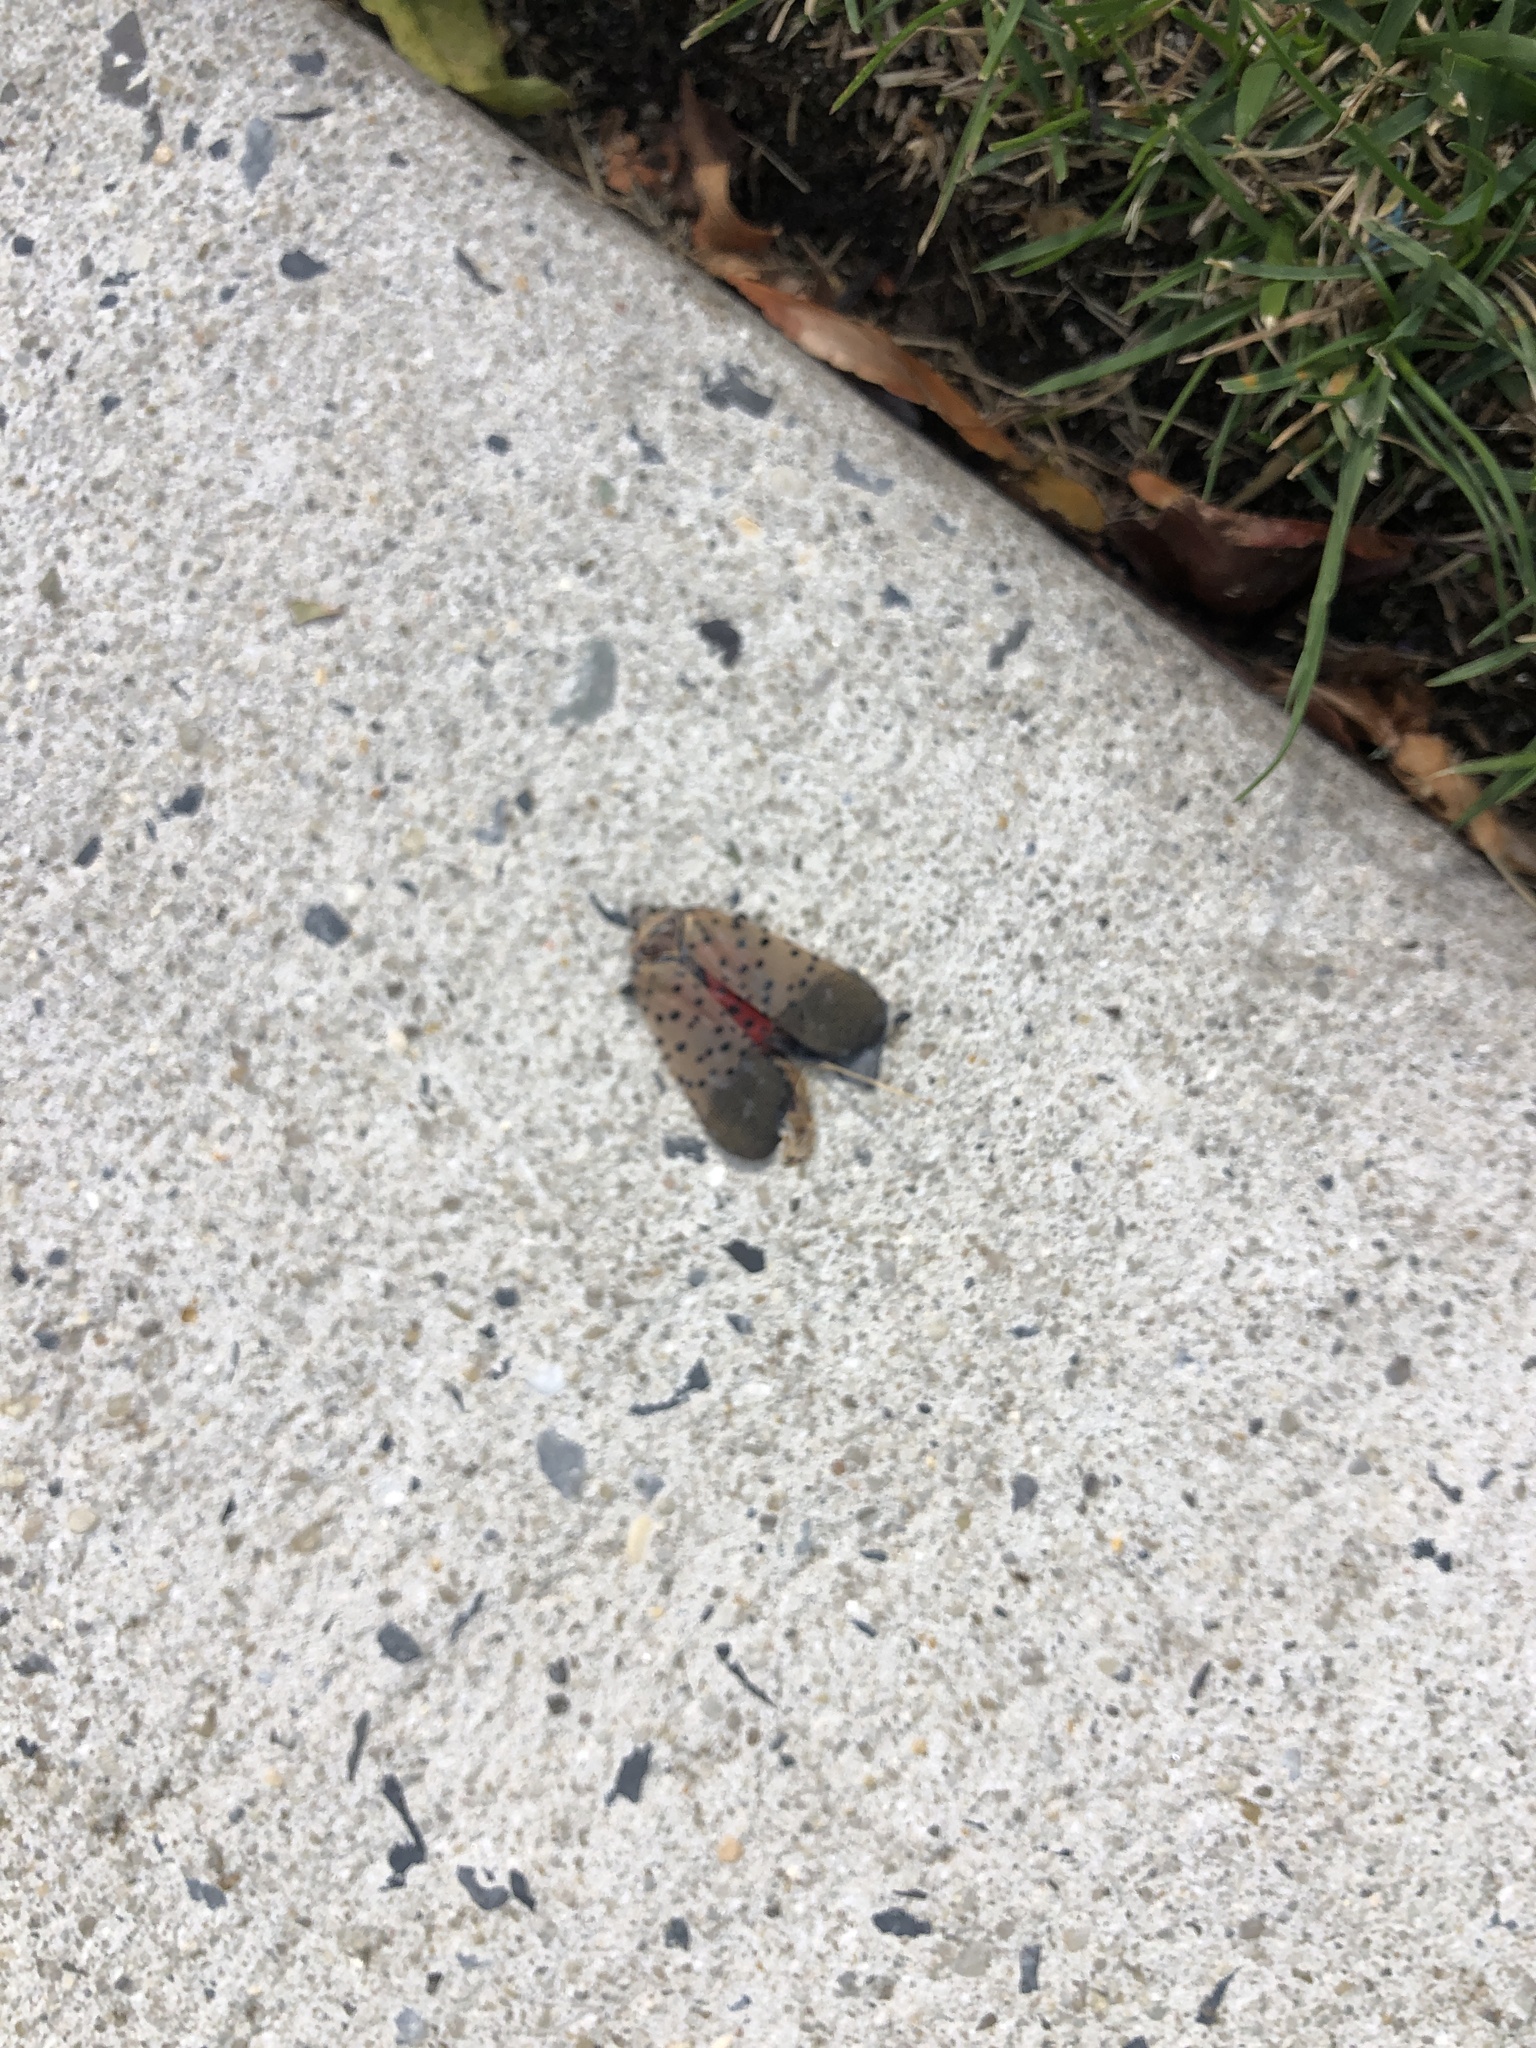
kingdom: Animalia
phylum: Arthropoda
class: Insecta
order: Hemiptera
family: Fulgoridae
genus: Lycorma
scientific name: Lycorma delicatula
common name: Spotted lanternfly
